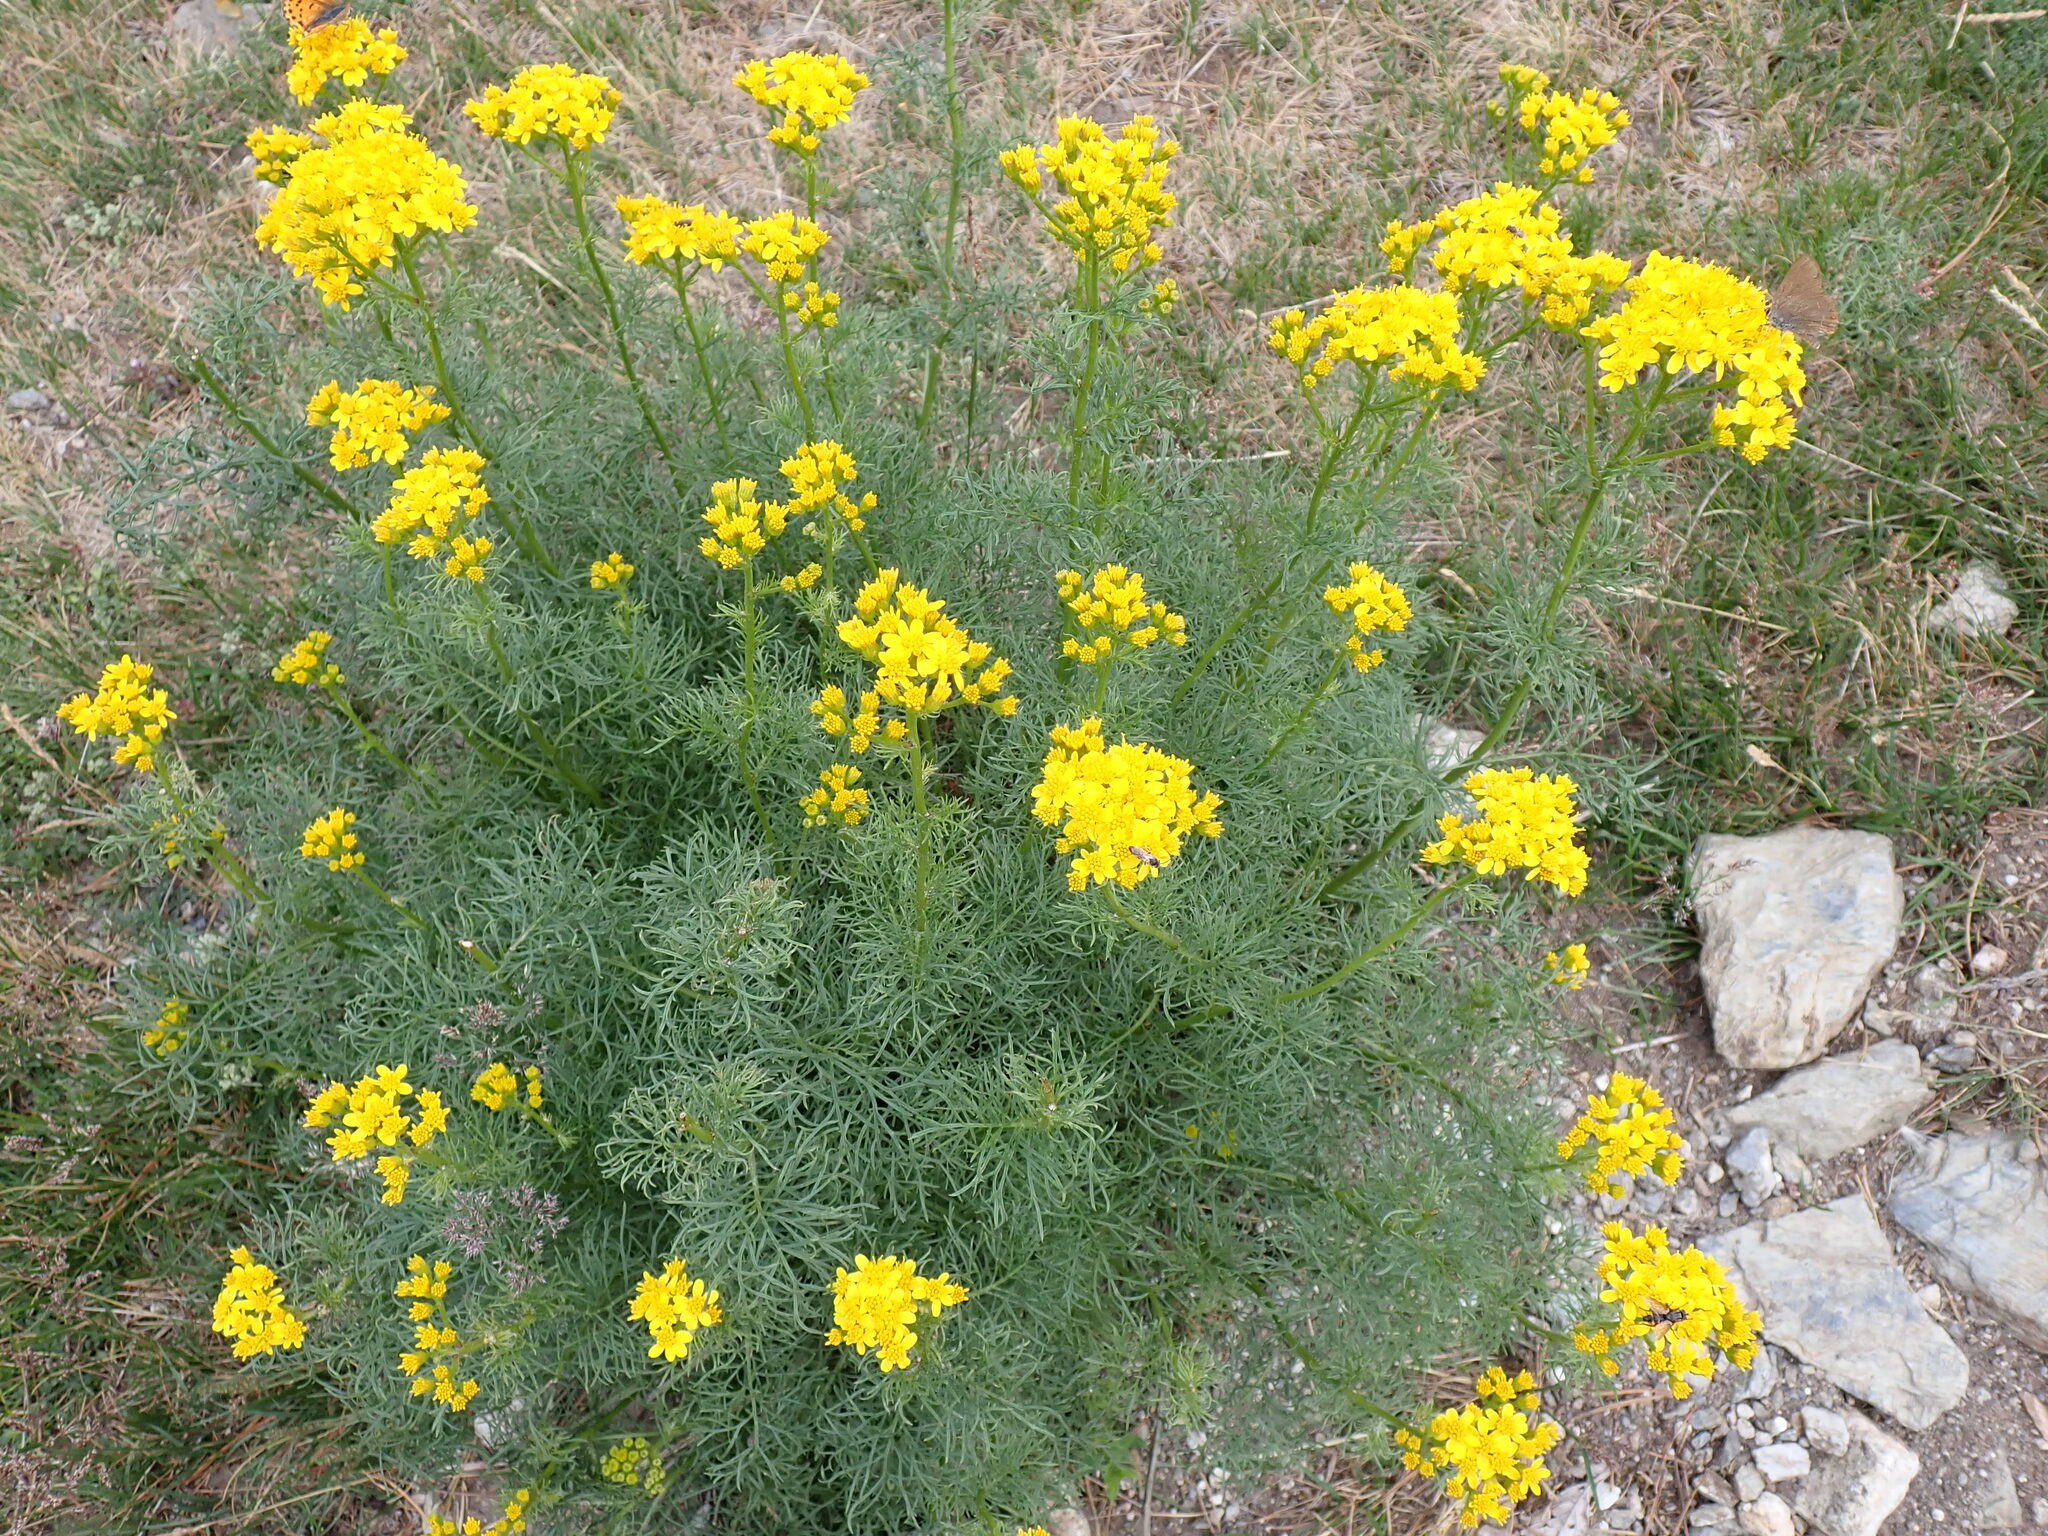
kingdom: Plantae
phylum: Tracheophyta
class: Magnoliopsida
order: Asterales
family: Asteraceae
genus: Jacobaea
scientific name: Jacobaea adonidifolia
